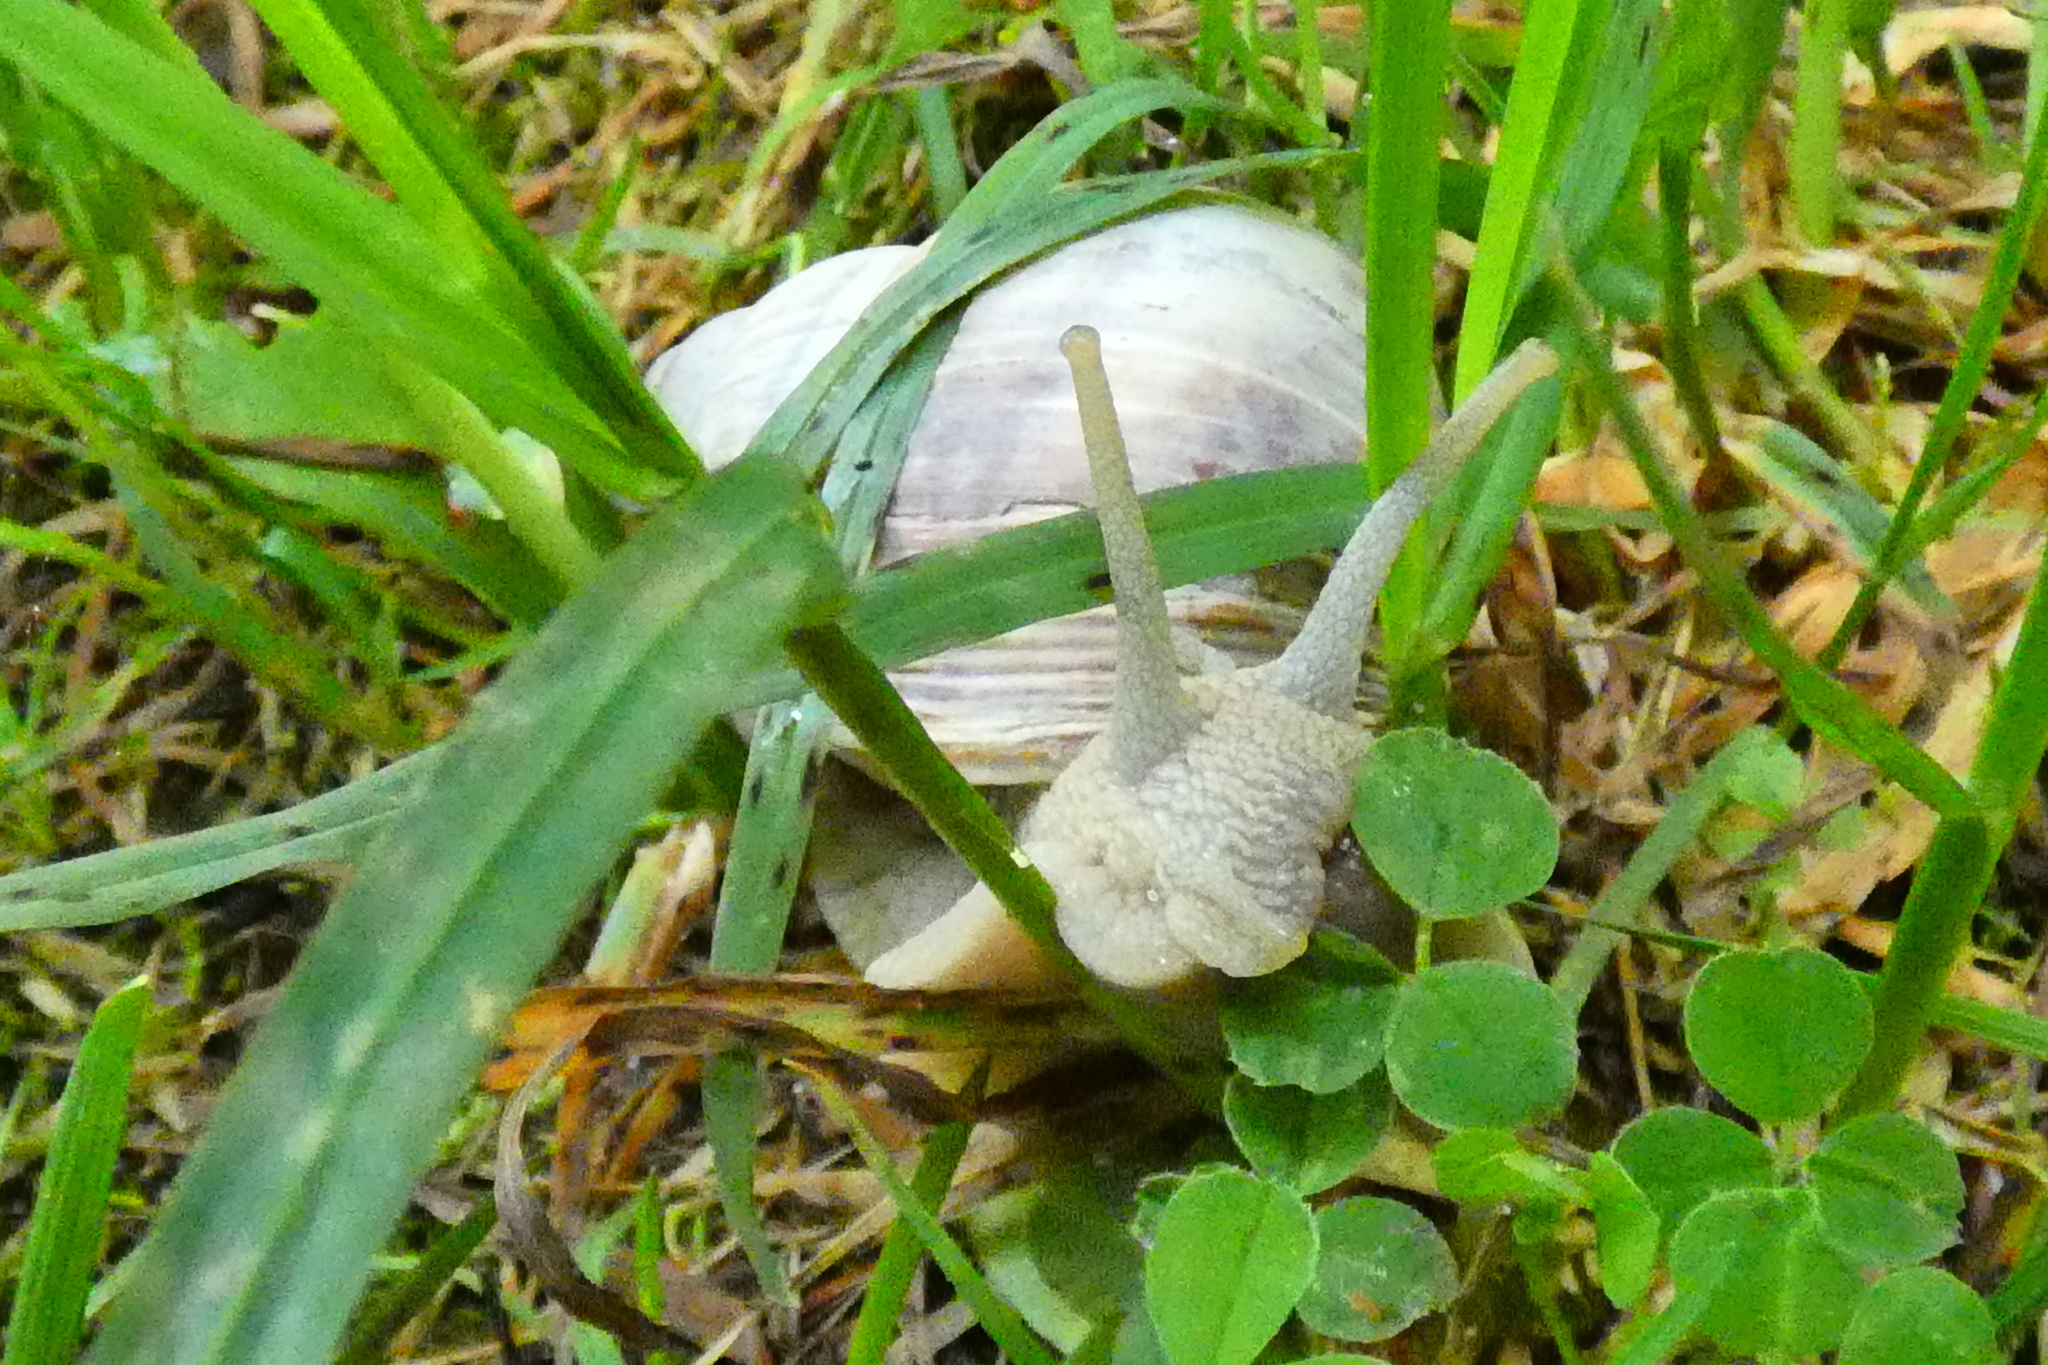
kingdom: Animalia
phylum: Mollusca
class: Gastropoda
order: Stylommatophora
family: Helicidae
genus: Helix
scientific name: Helix pomatia
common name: Roman snail
